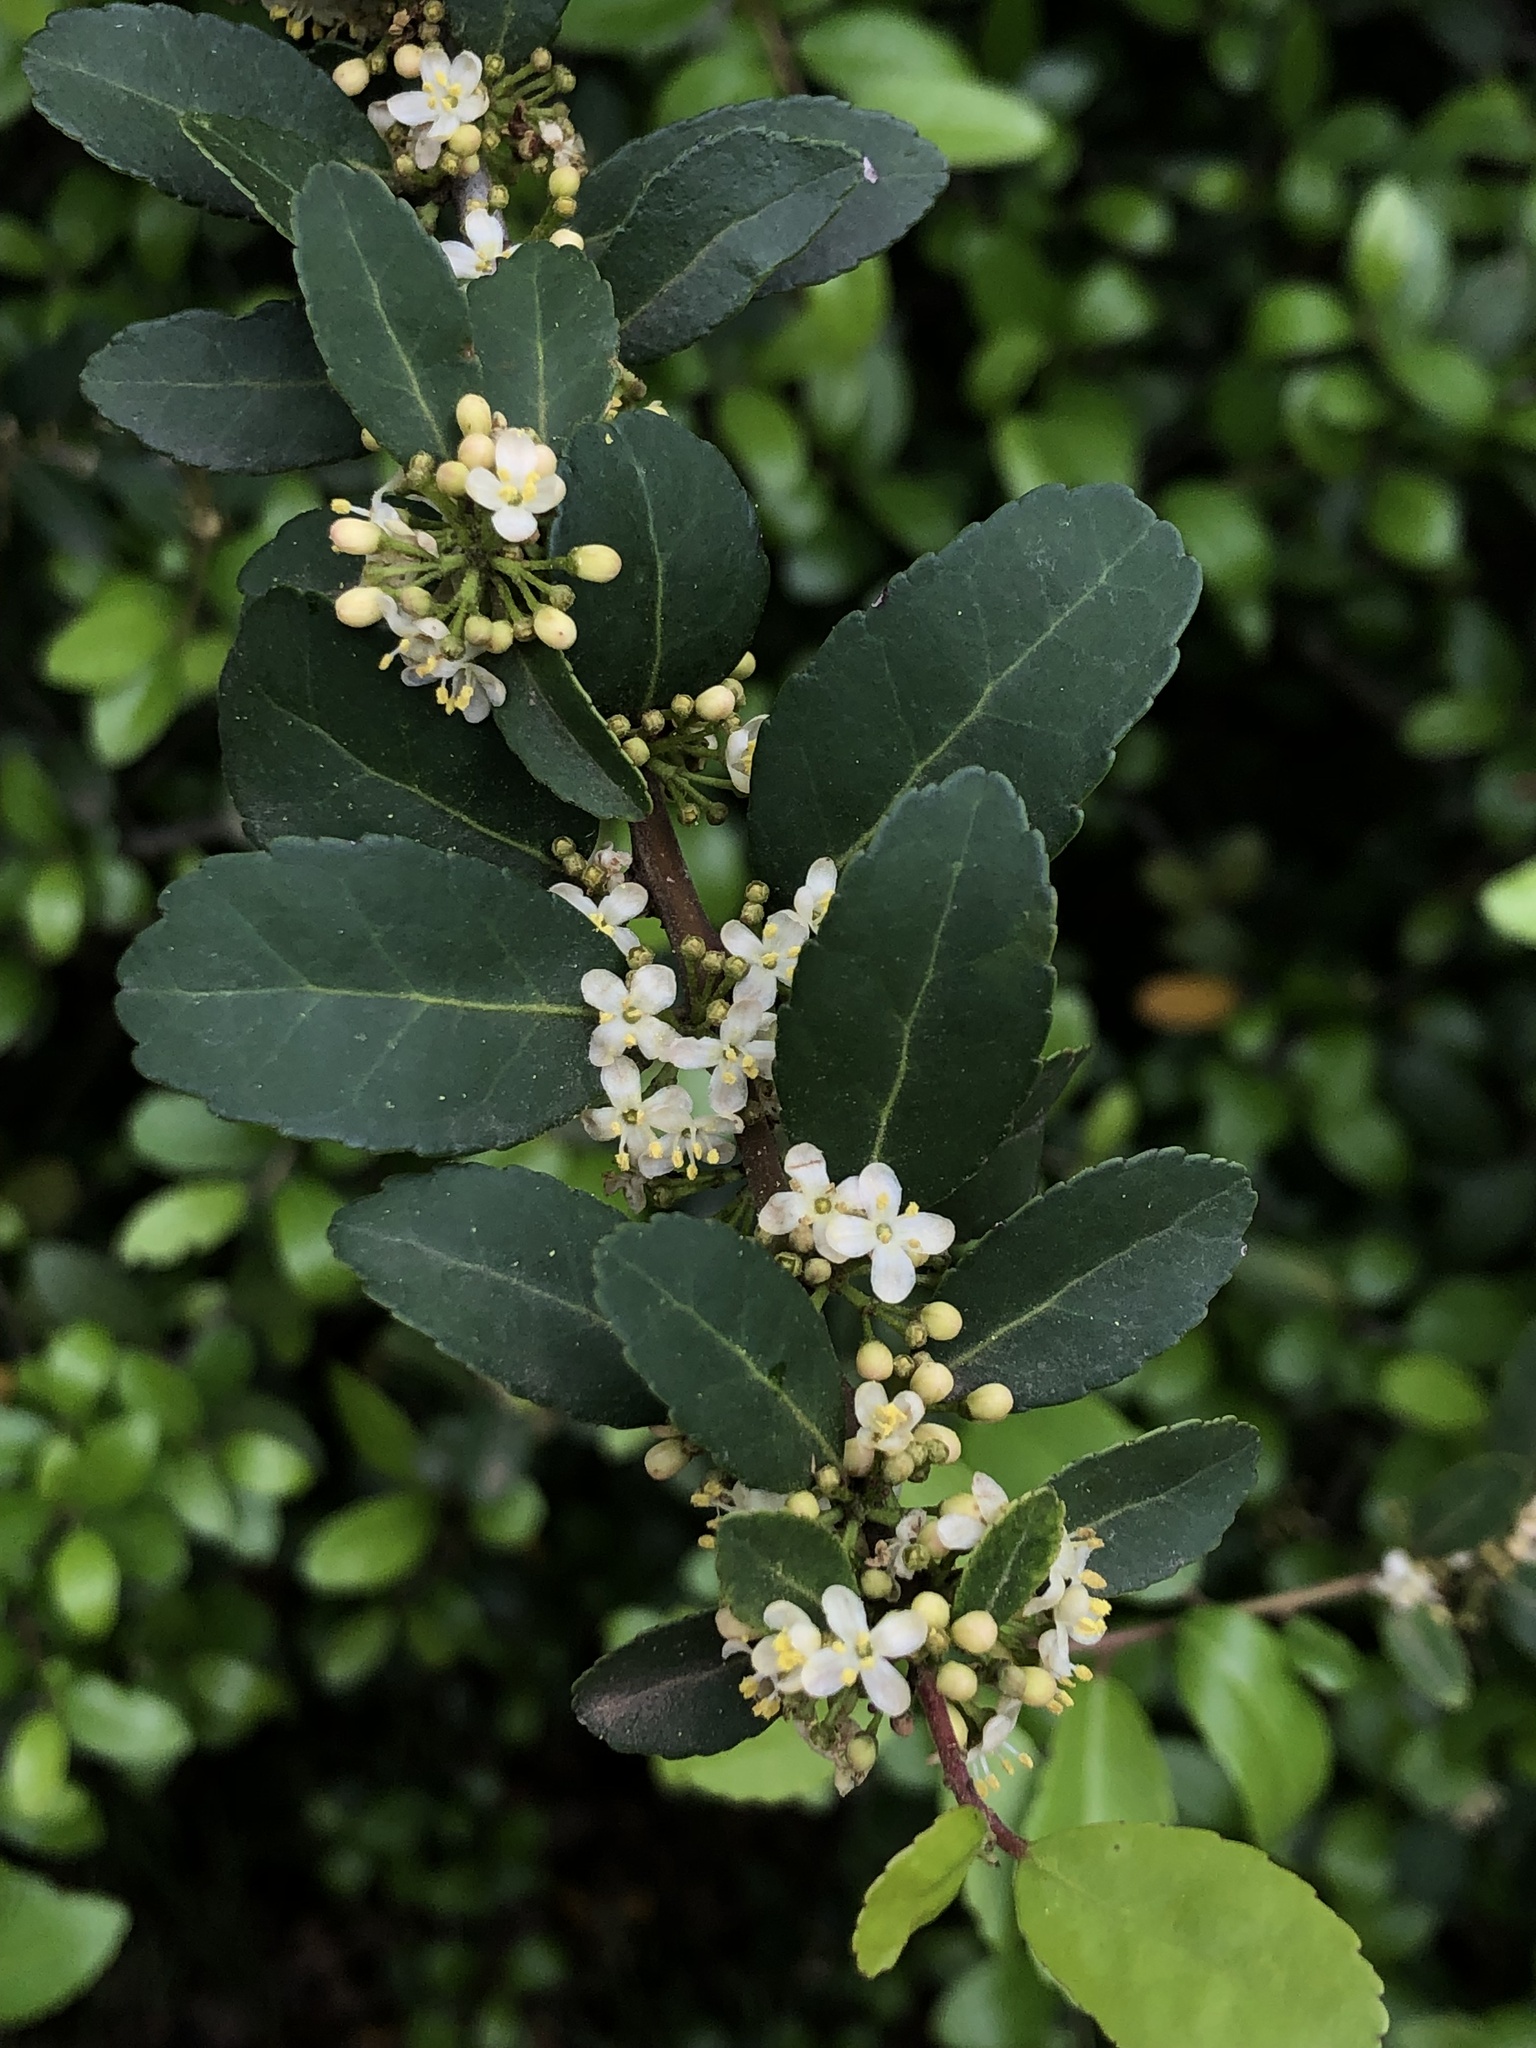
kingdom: Plantae
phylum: Tracheophyta
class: Magnoliopsida
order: Aquifoliales
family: Aquifoliaceae
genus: Ilex
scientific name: Ilex vomitoria
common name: Yaupon holly
